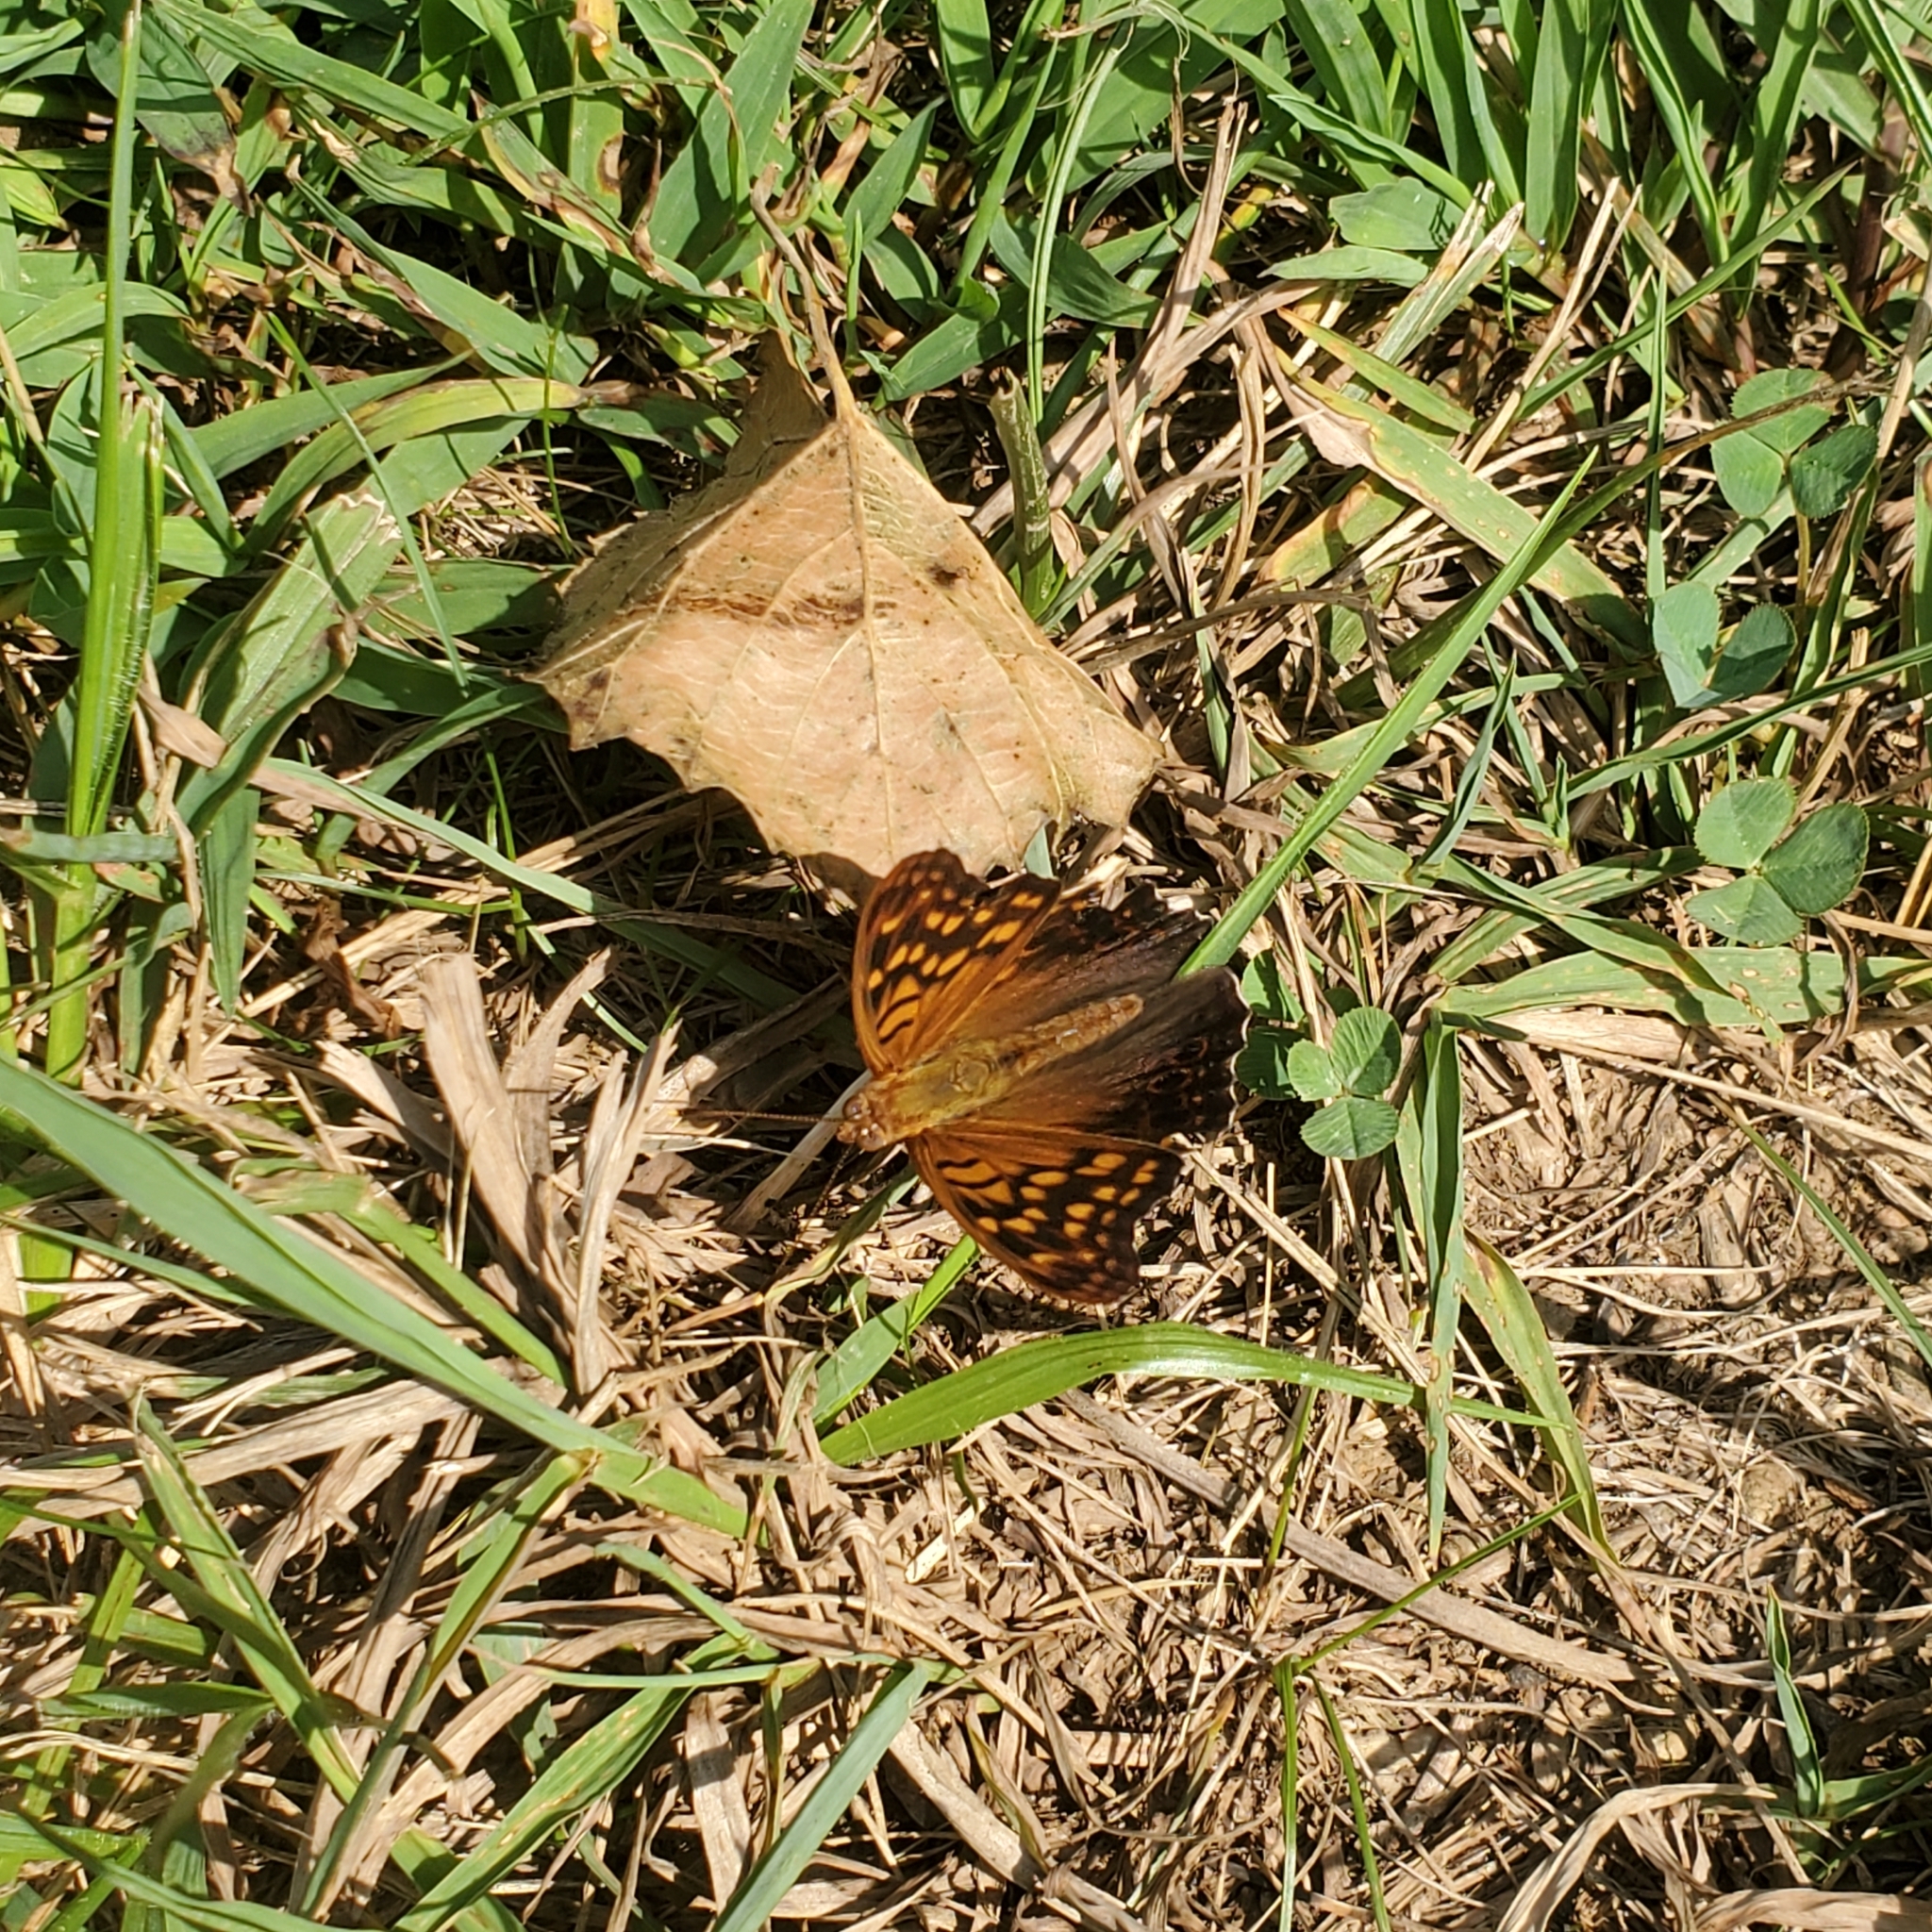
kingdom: Animalia
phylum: Arthropoda
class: Insecta
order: Lepidoptera
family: Nymphalidae
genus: Asterocampa
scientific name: Asterocampa clyton
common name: Tawny emperor
